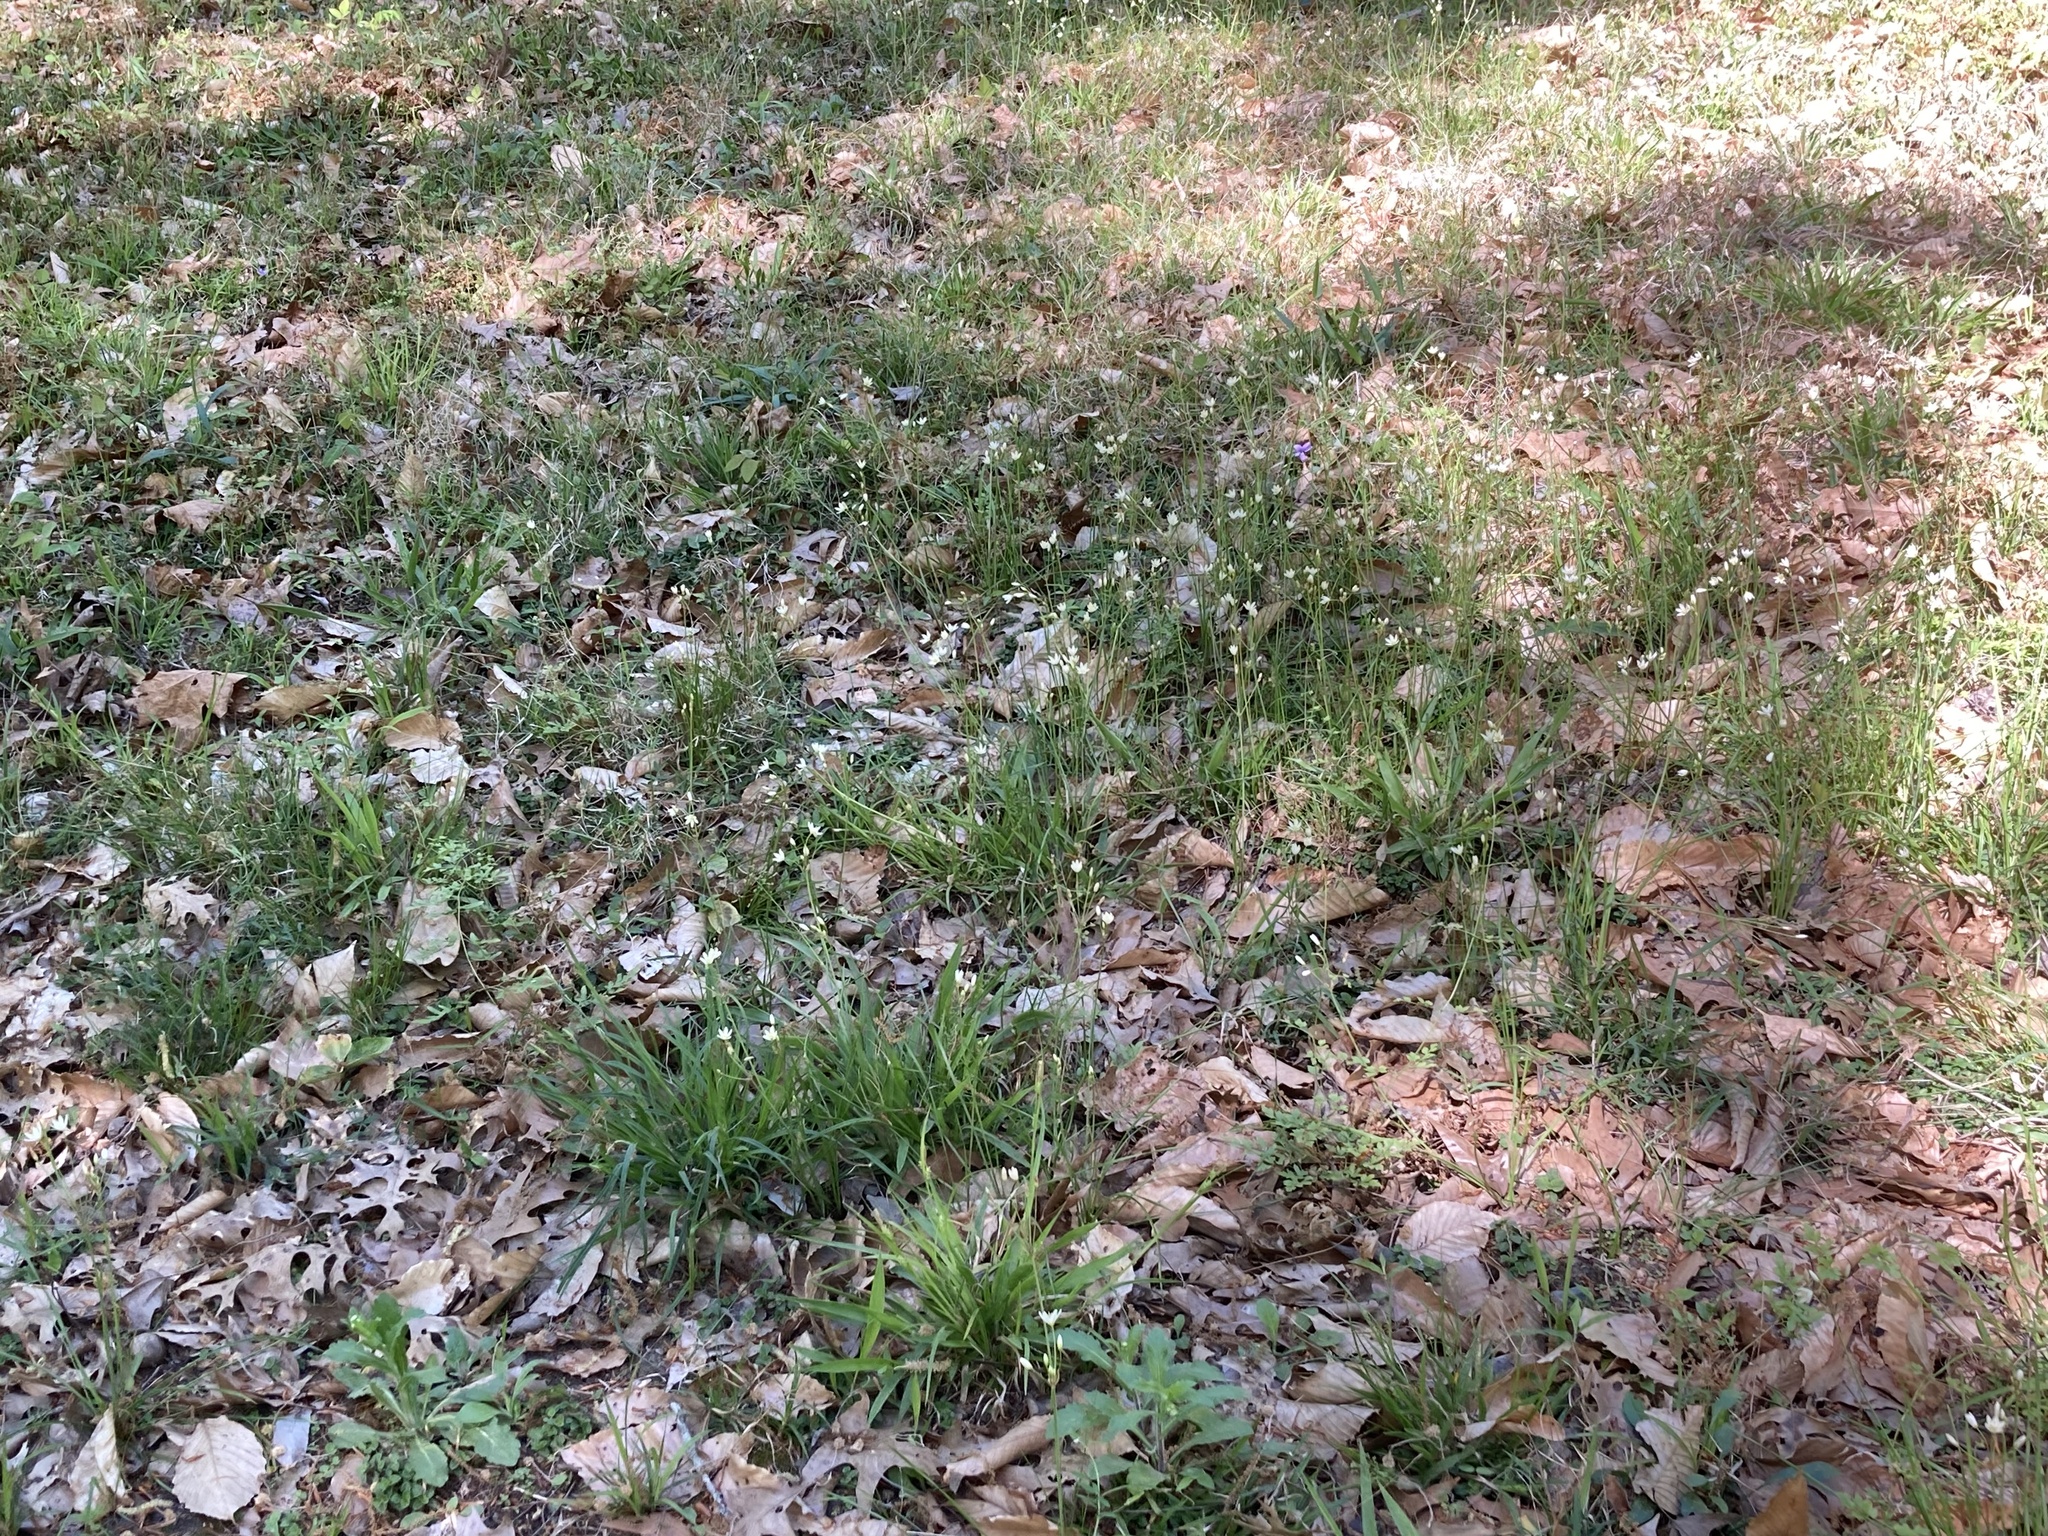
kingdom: Plantae
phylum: Tracheophyta
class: Liliopsida
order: Asparagales
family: Amaryllidaceae
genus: Nothoscordum
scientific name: Nothoscordum bivalve
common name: Crow-poison
